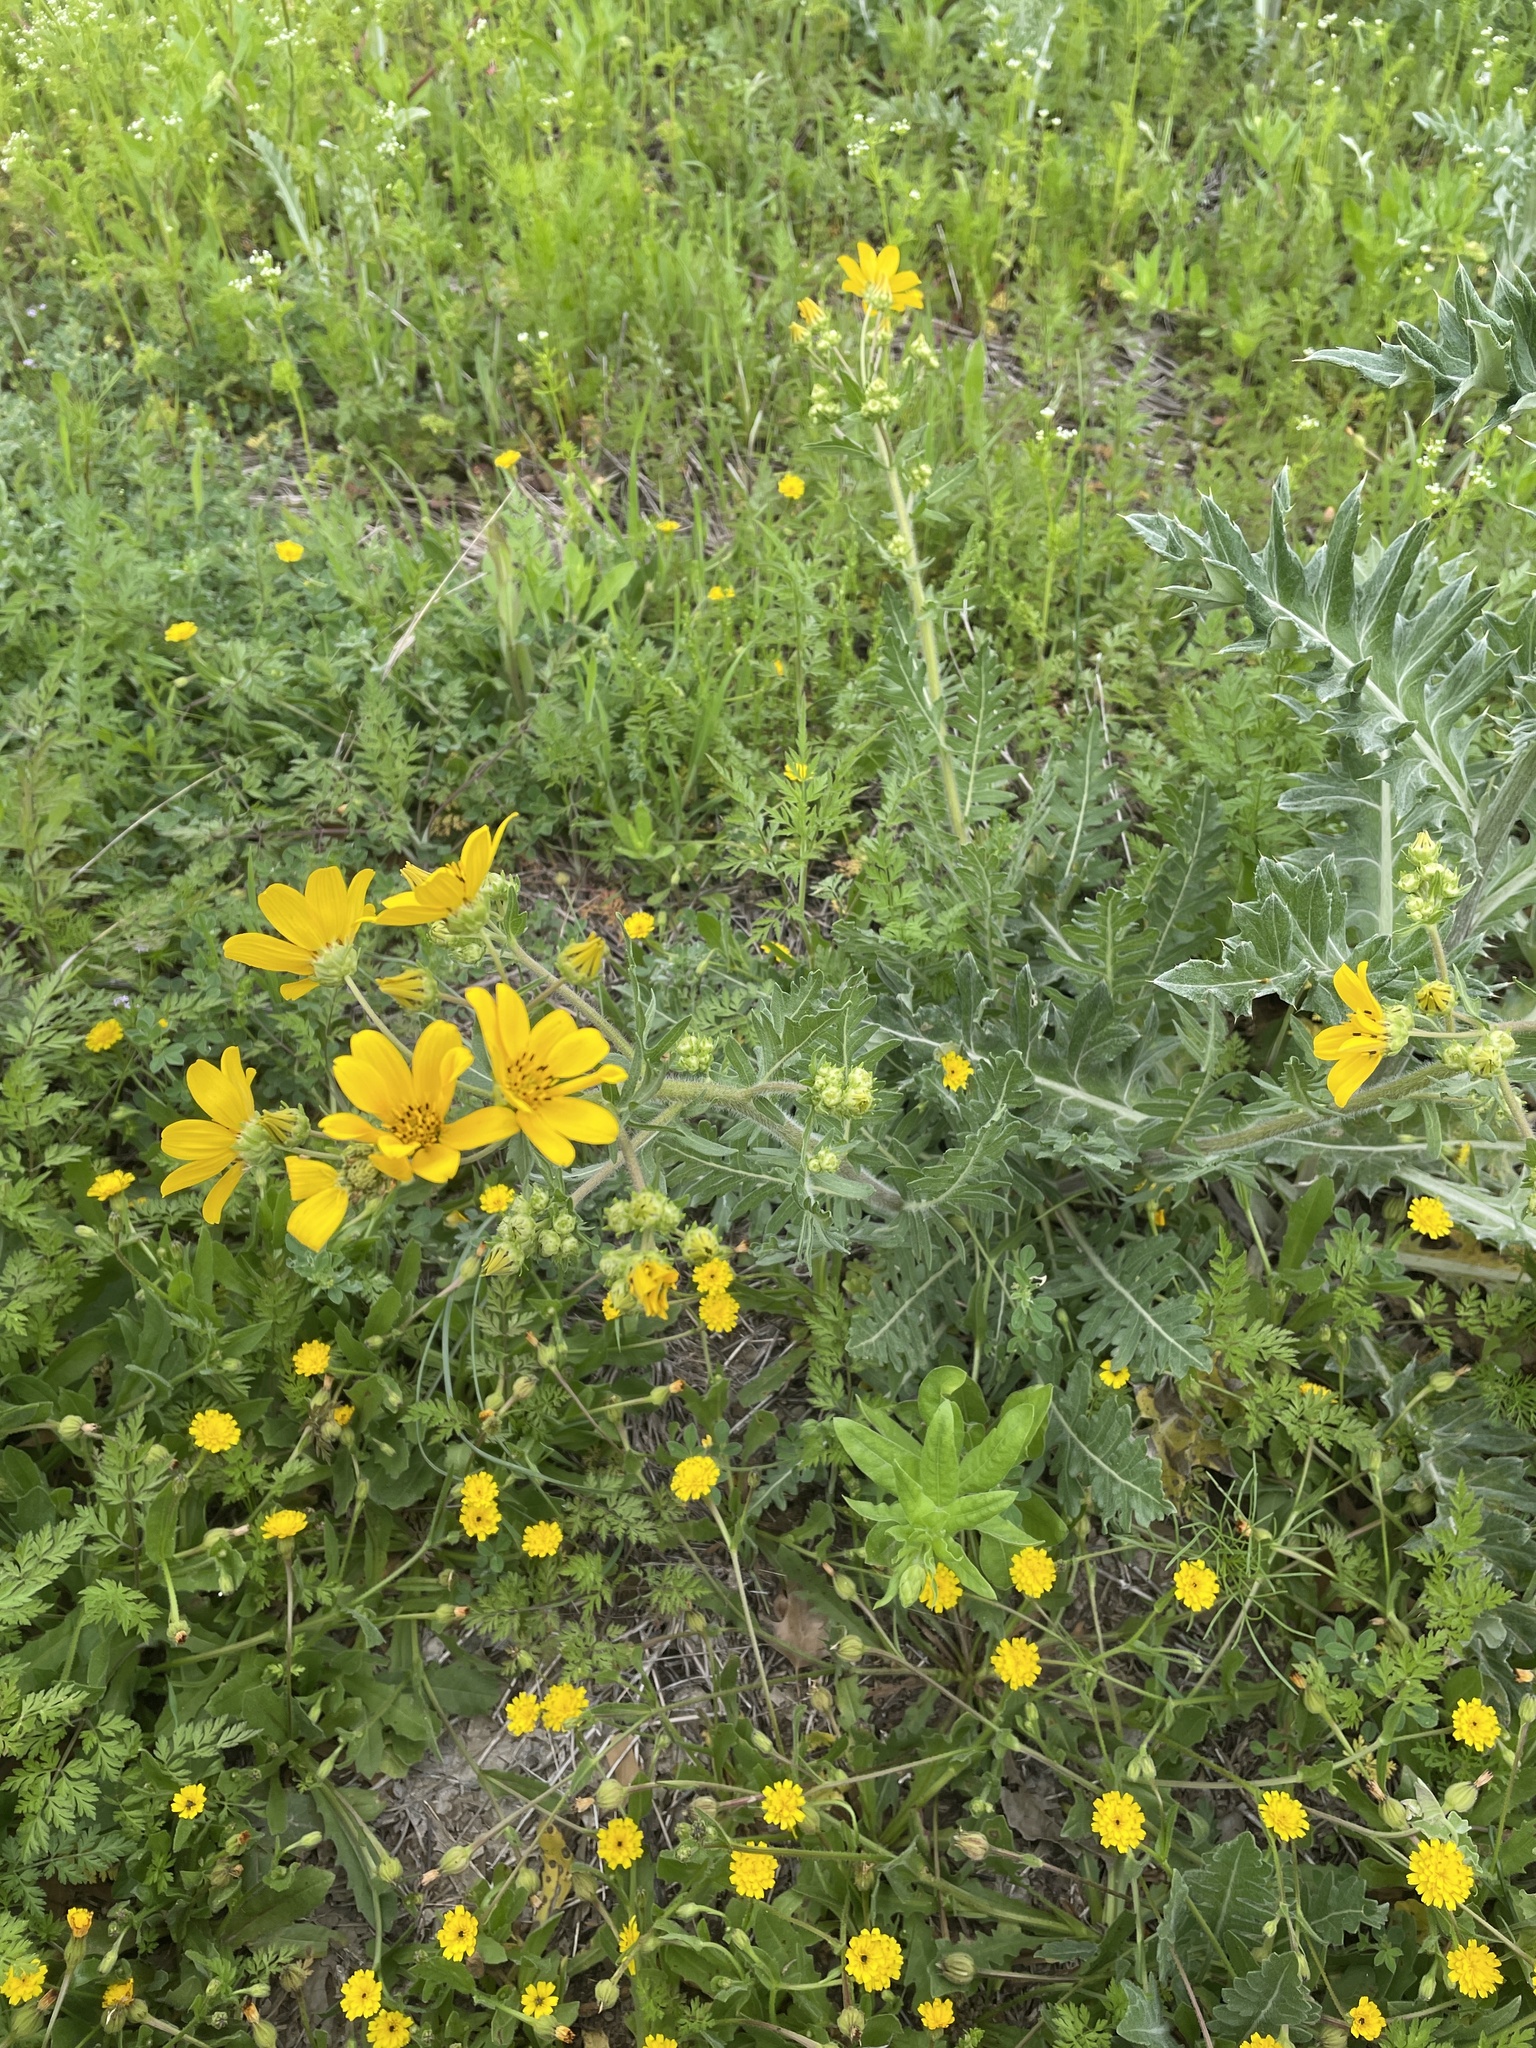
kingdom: Plantae
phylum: Tracheophyta
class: Magnoliopsida
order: Asterales
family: Asteraceae
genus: Engelmannia
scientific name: Engelmannia peristenia
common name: Engelmann's daisy
